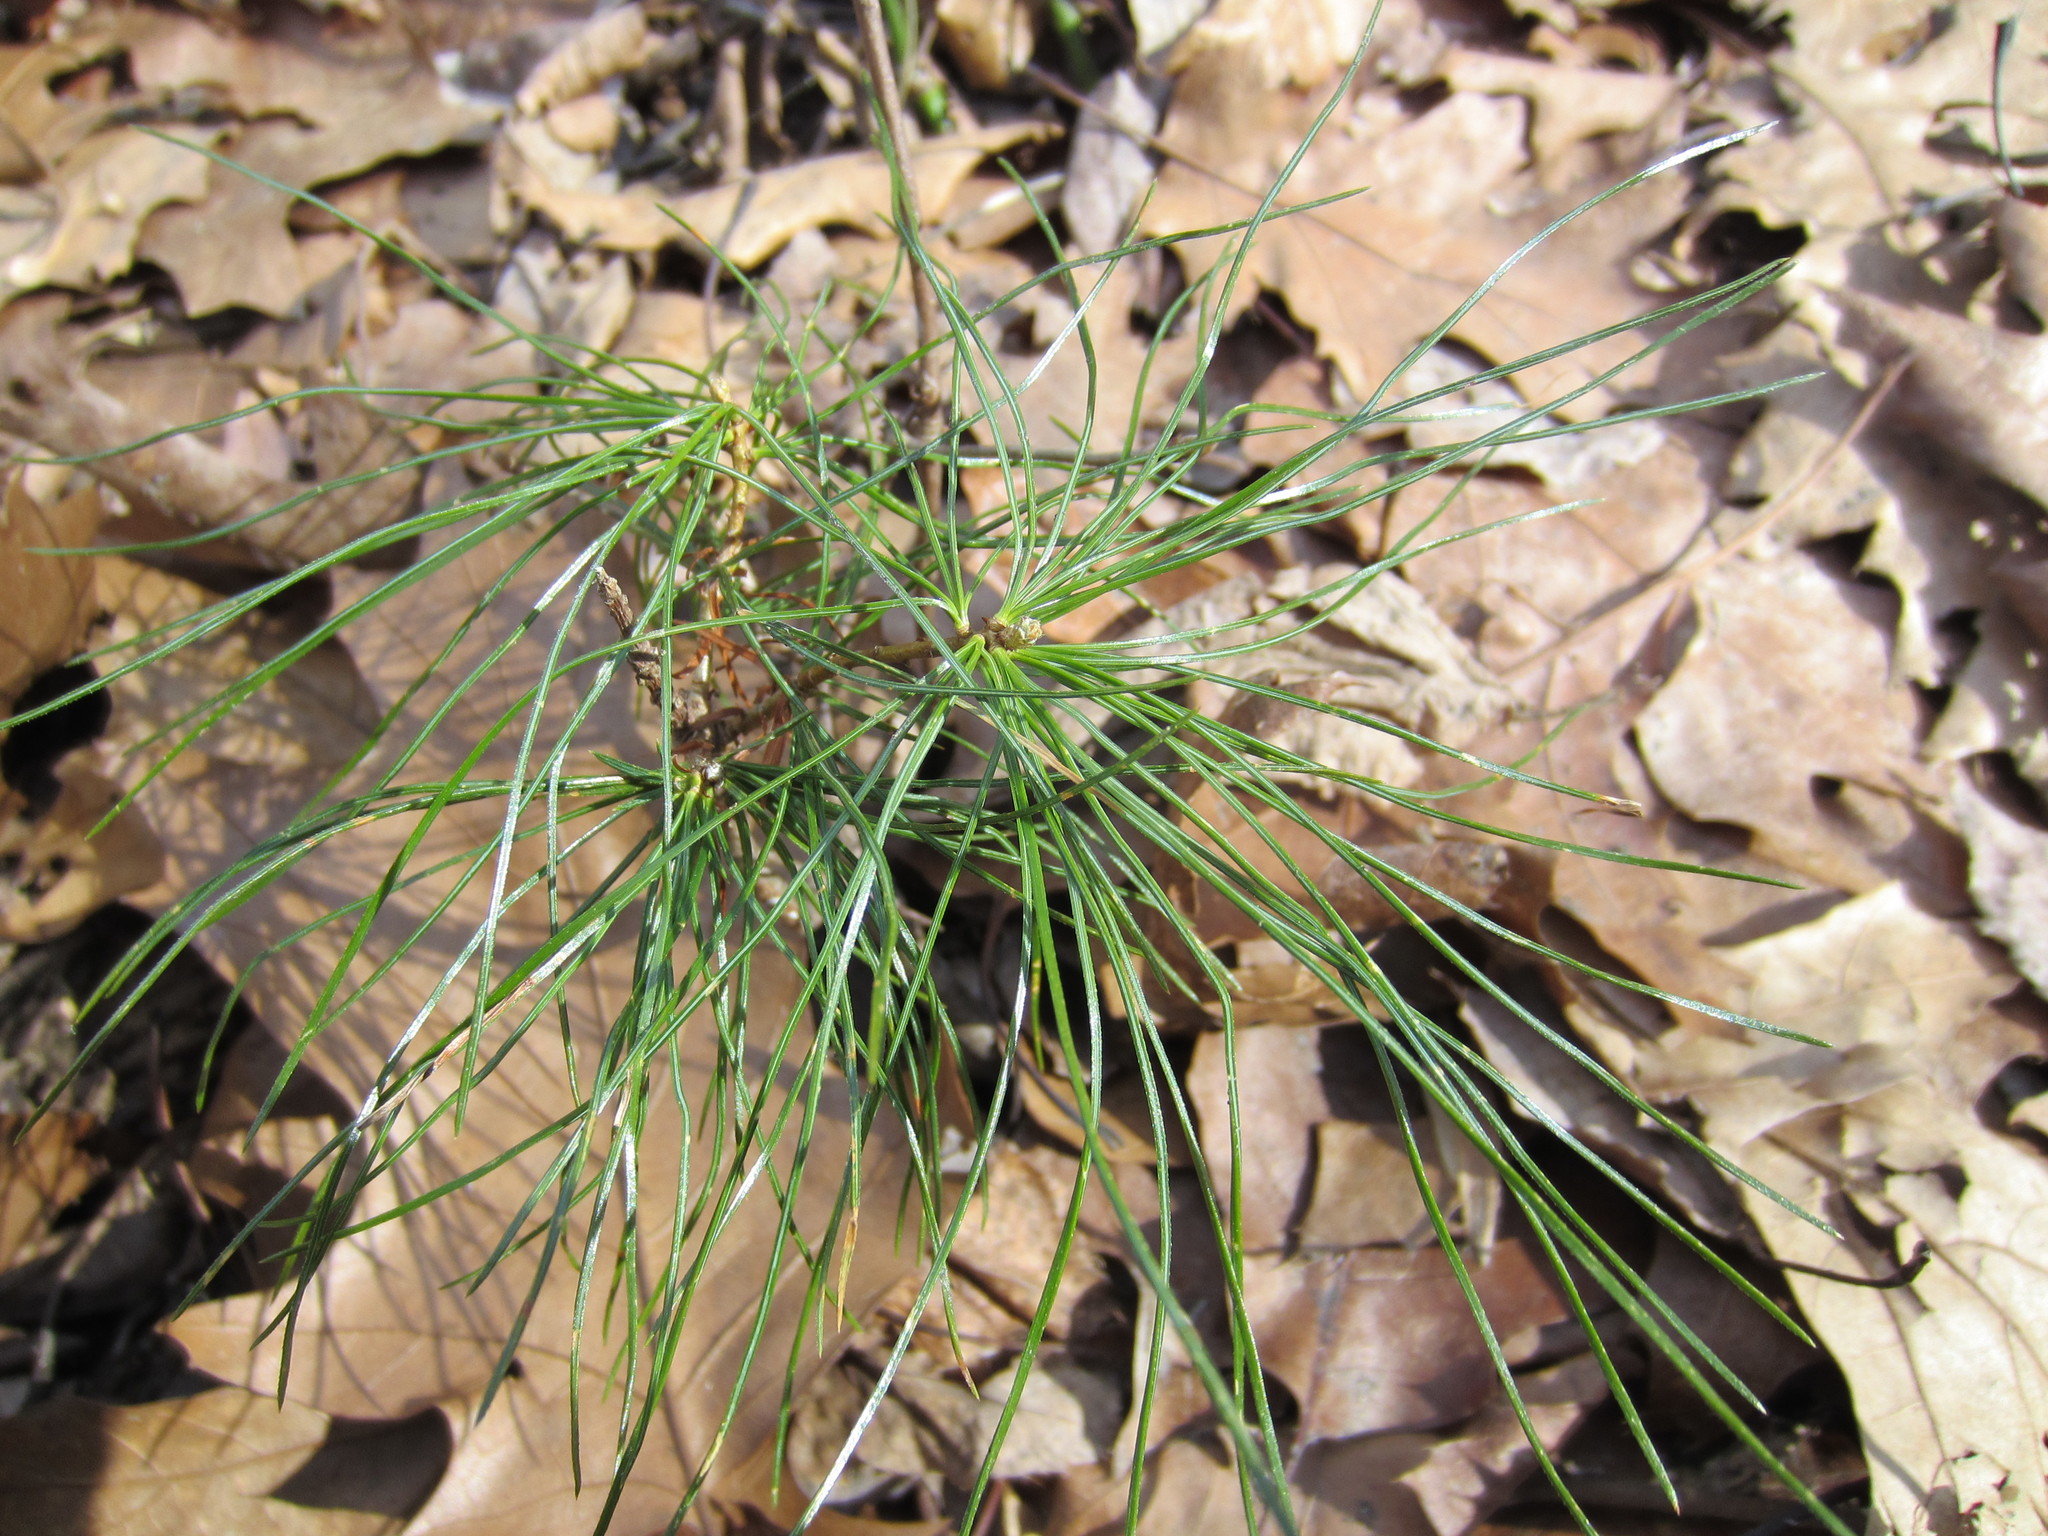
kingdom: Plantae
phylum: Tracheophyta
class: Pinopsida
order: Pinales
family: Pinaceae
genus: Pinus
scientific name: Pinus strobus
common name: Weymouth pine
